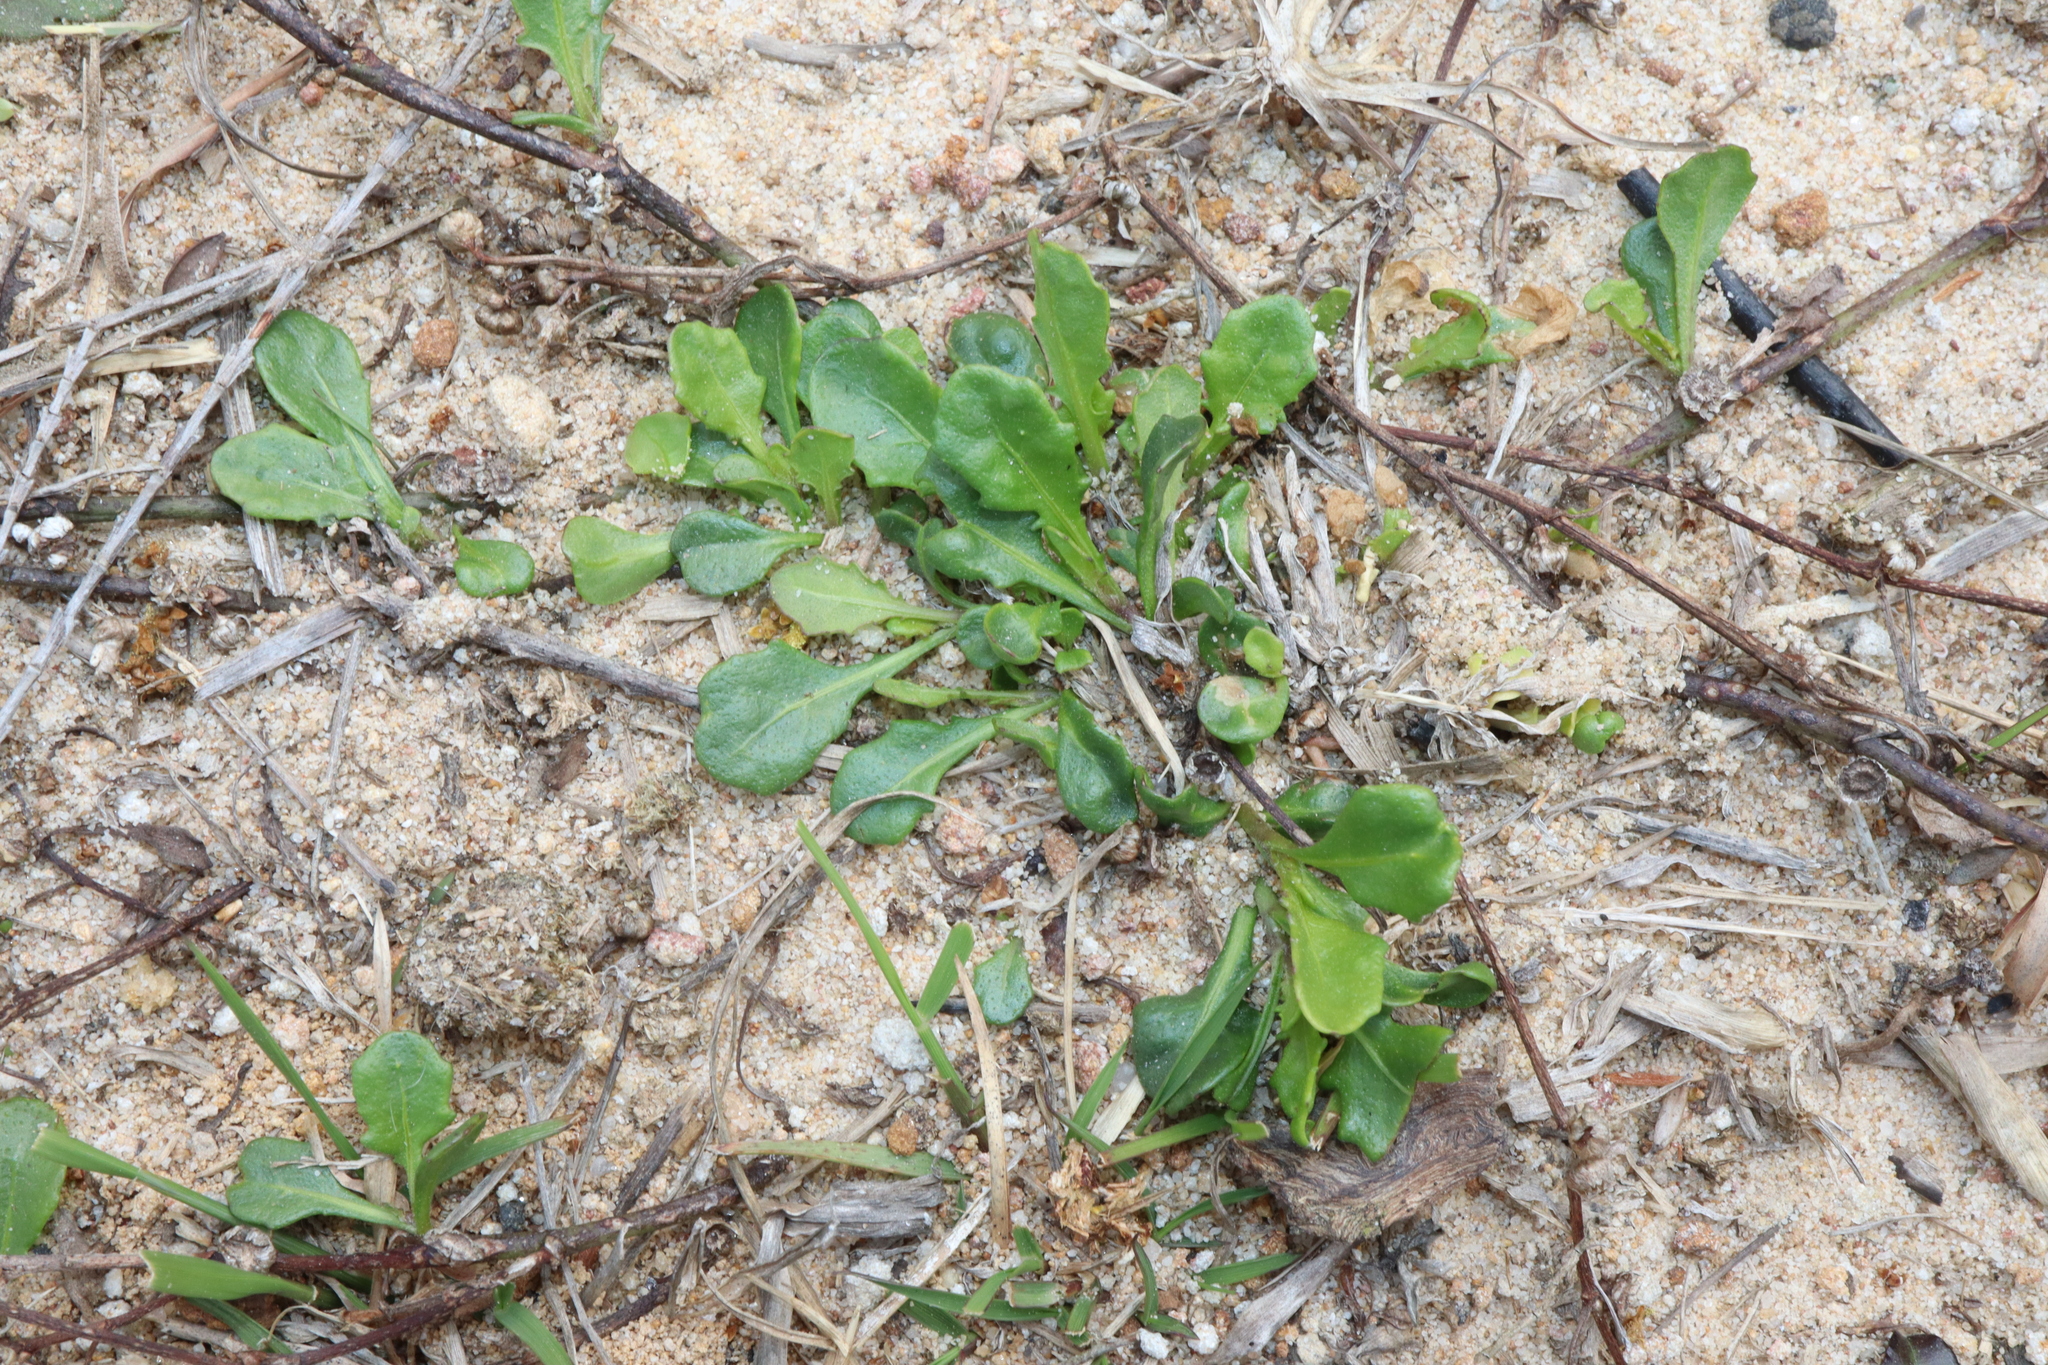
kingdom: Plantae
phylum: Tracheophyta
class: Magnoliopsida
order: Asterales
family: Asteraceae
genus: Sphaeromorphaea
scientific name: Sphaeromorphaea australis
